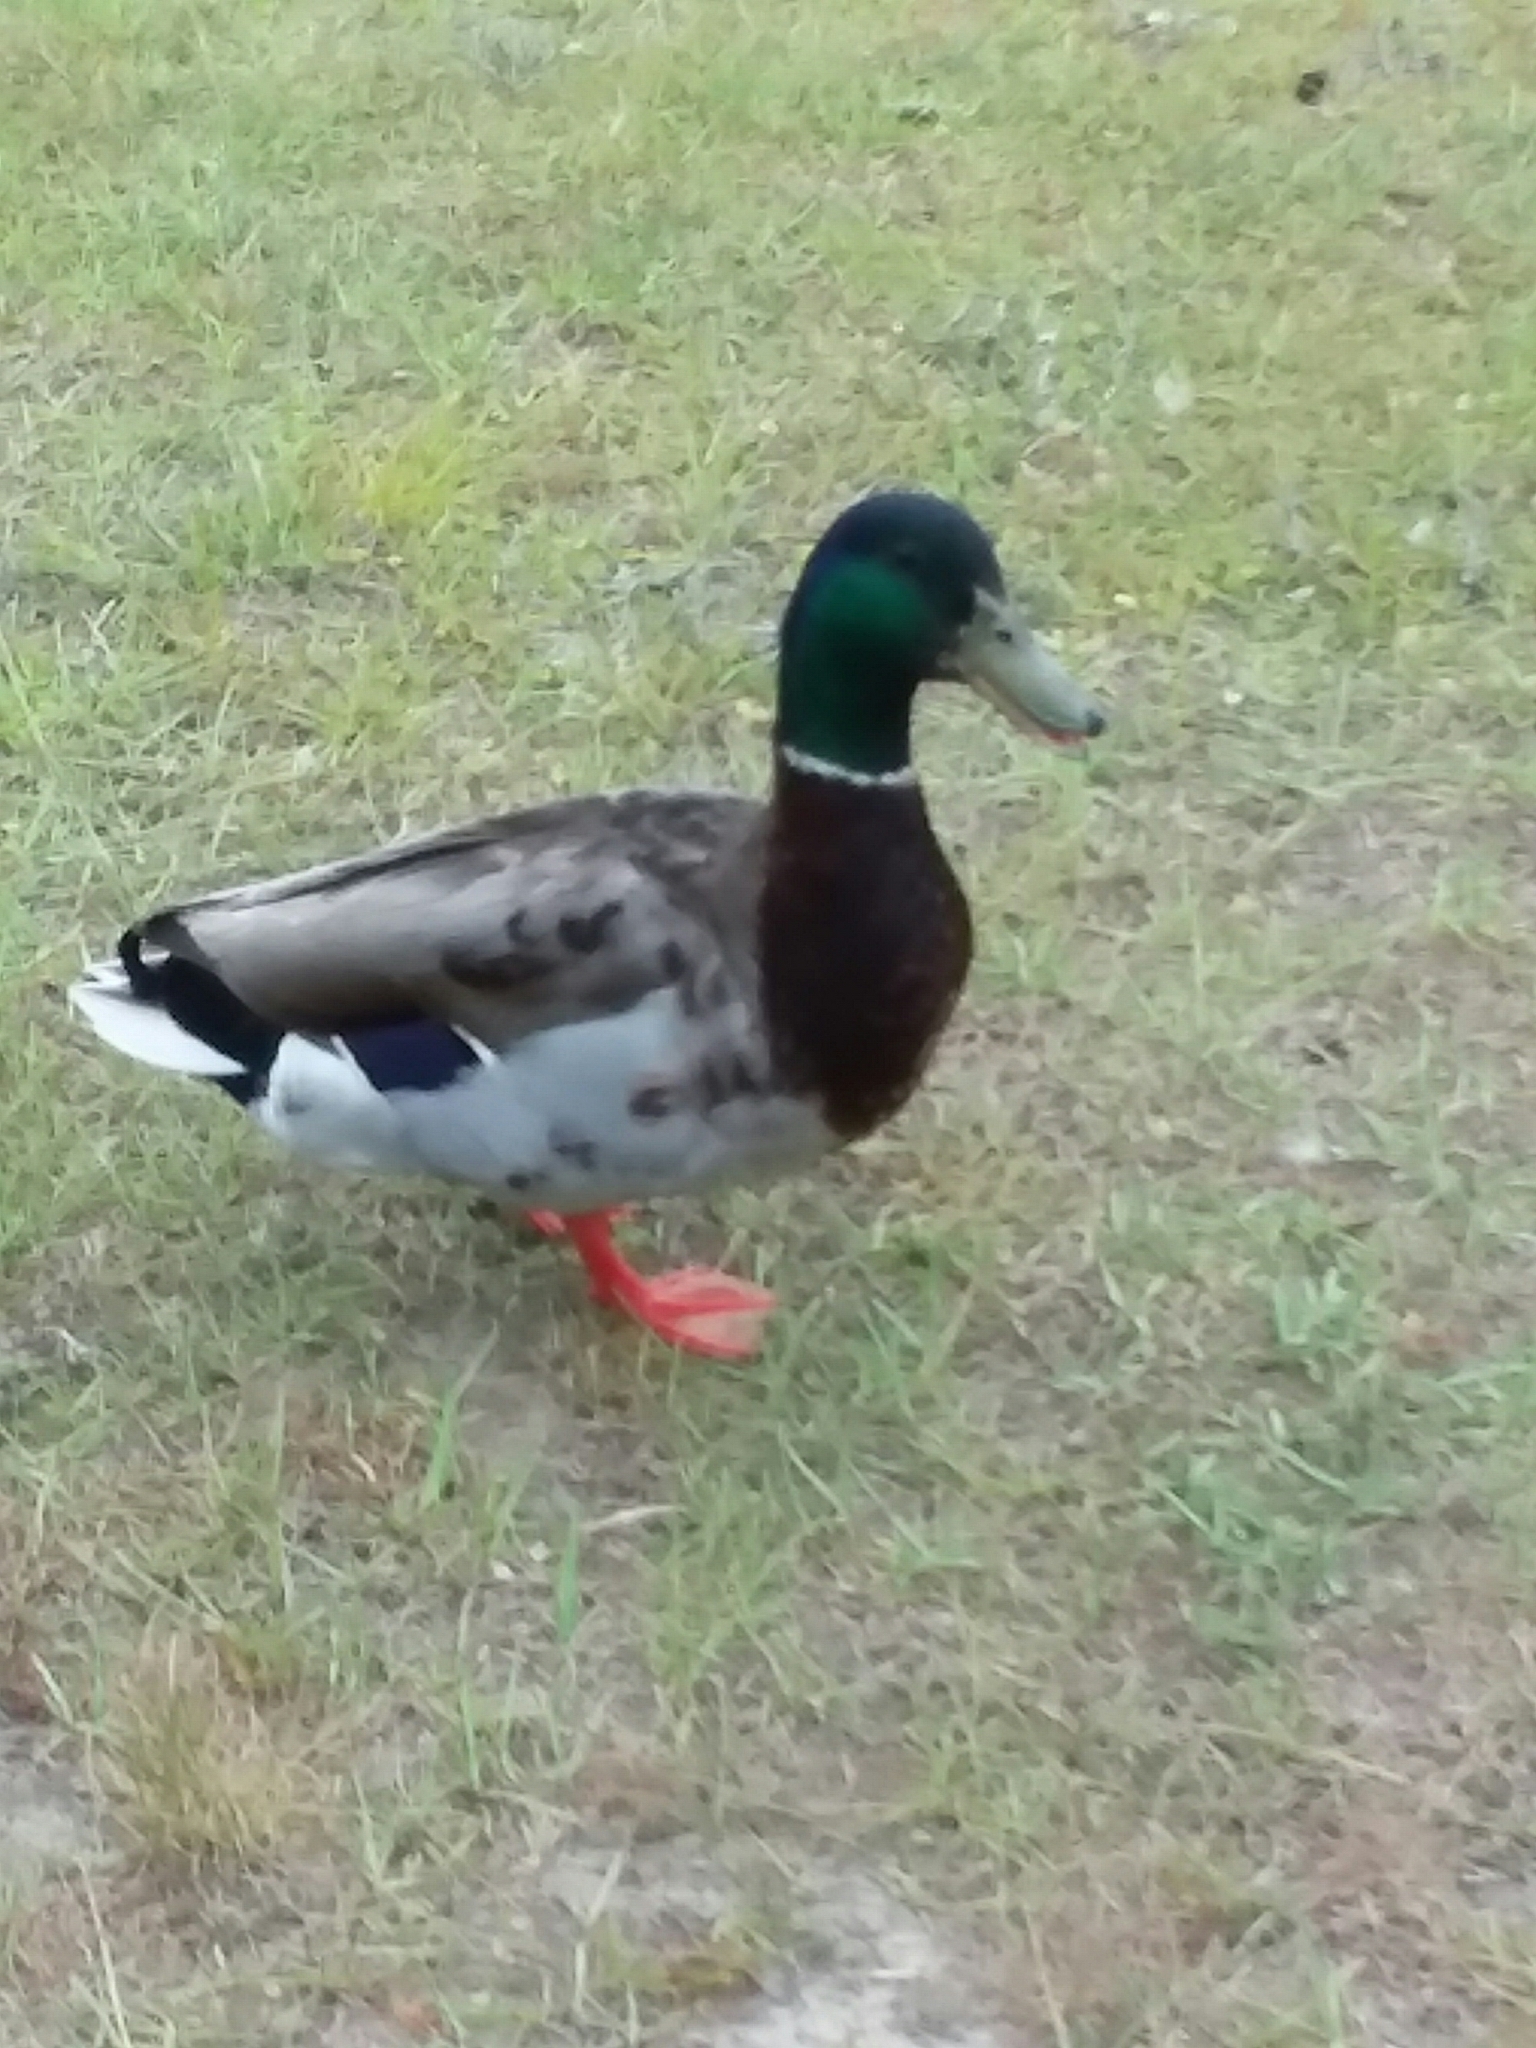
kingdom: Animalia
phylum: Chordata
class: Aves
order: Anseriformes
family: Anatidae
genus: Anas
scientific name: Anas platyrhynchos
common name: Mallard
